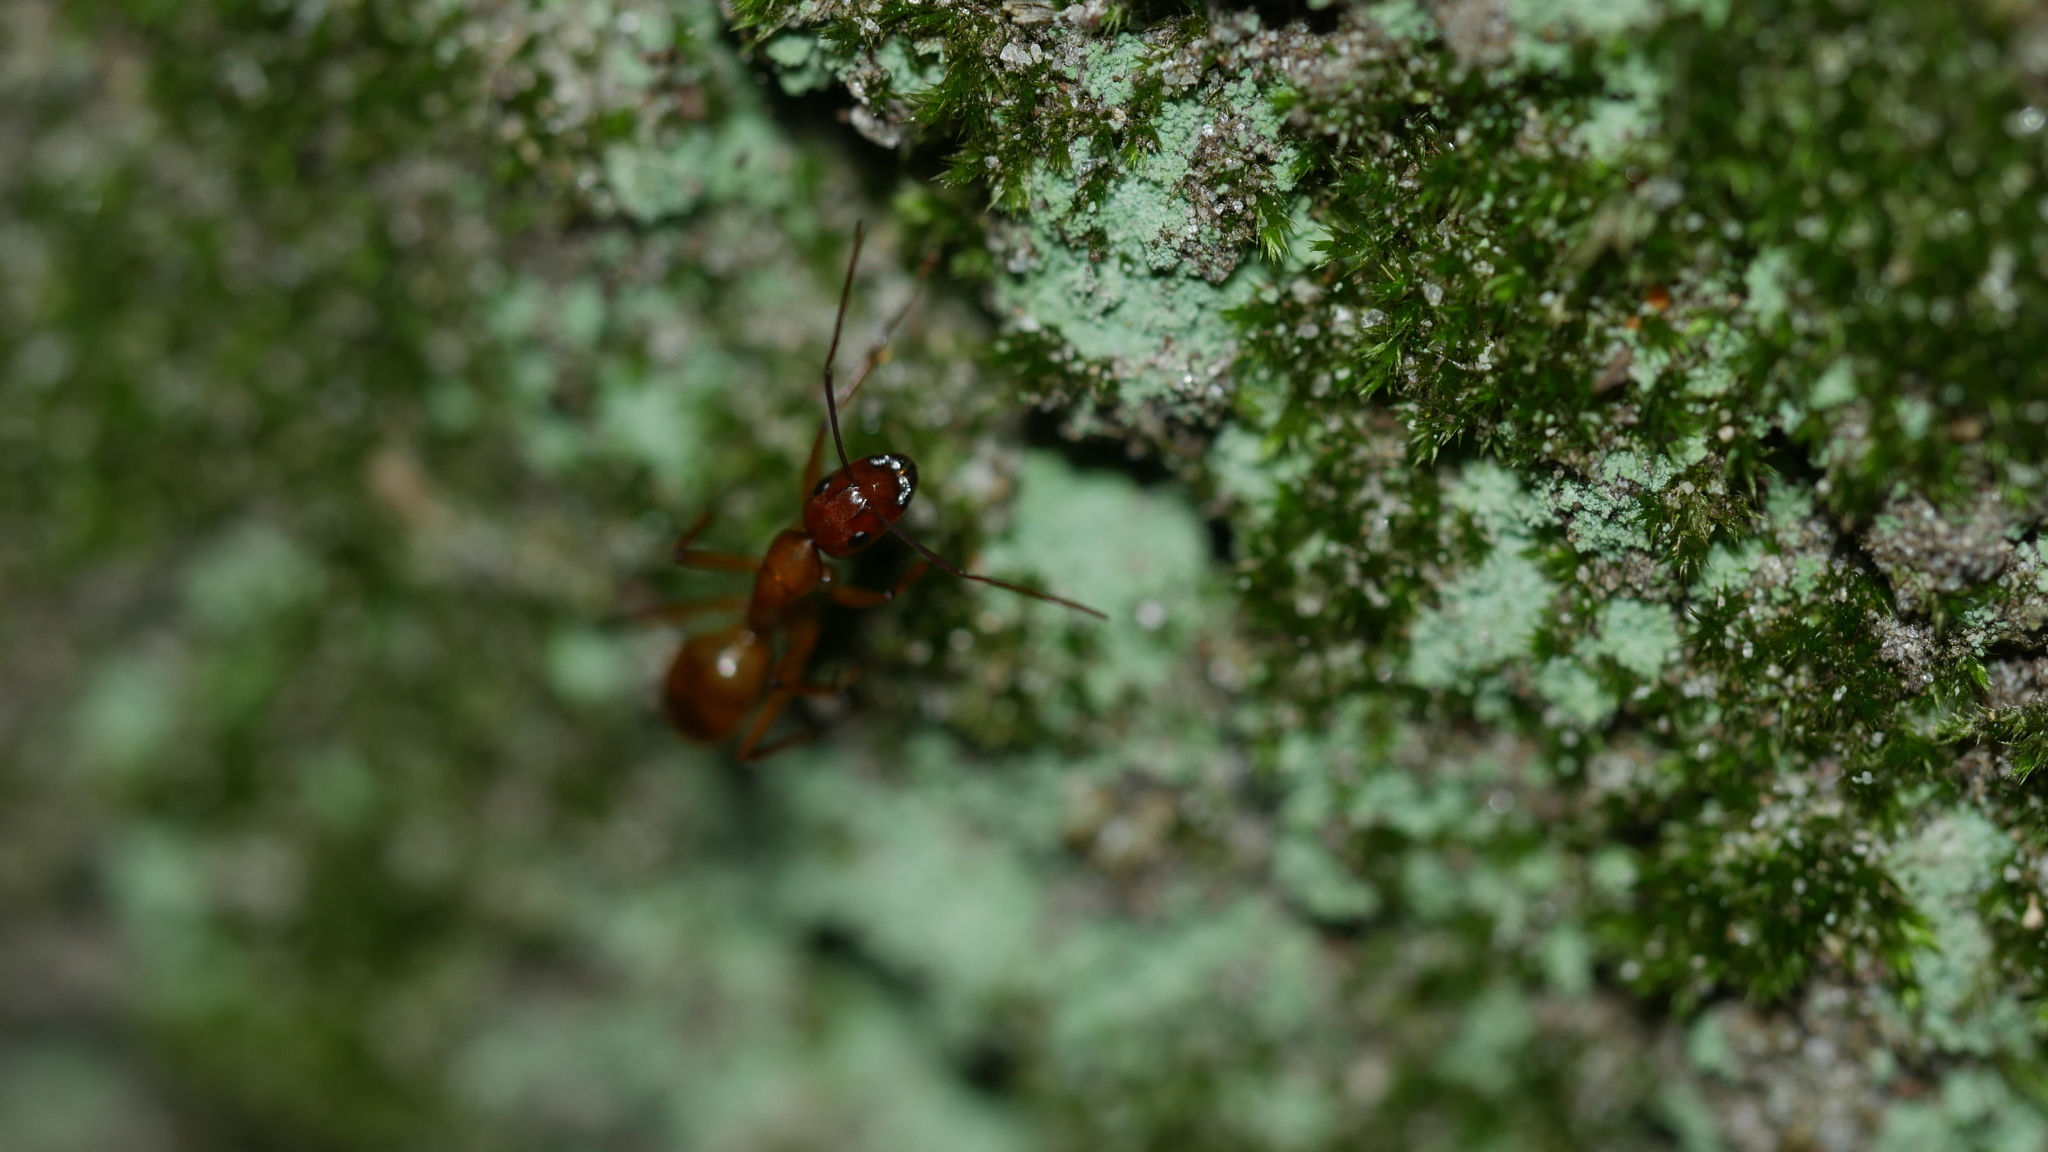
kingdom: Animalia
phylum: Arthropoda
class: Insecta
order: Hymenoptera
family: Formicidae
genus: Camponotus
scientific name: Camponotus castaneus
